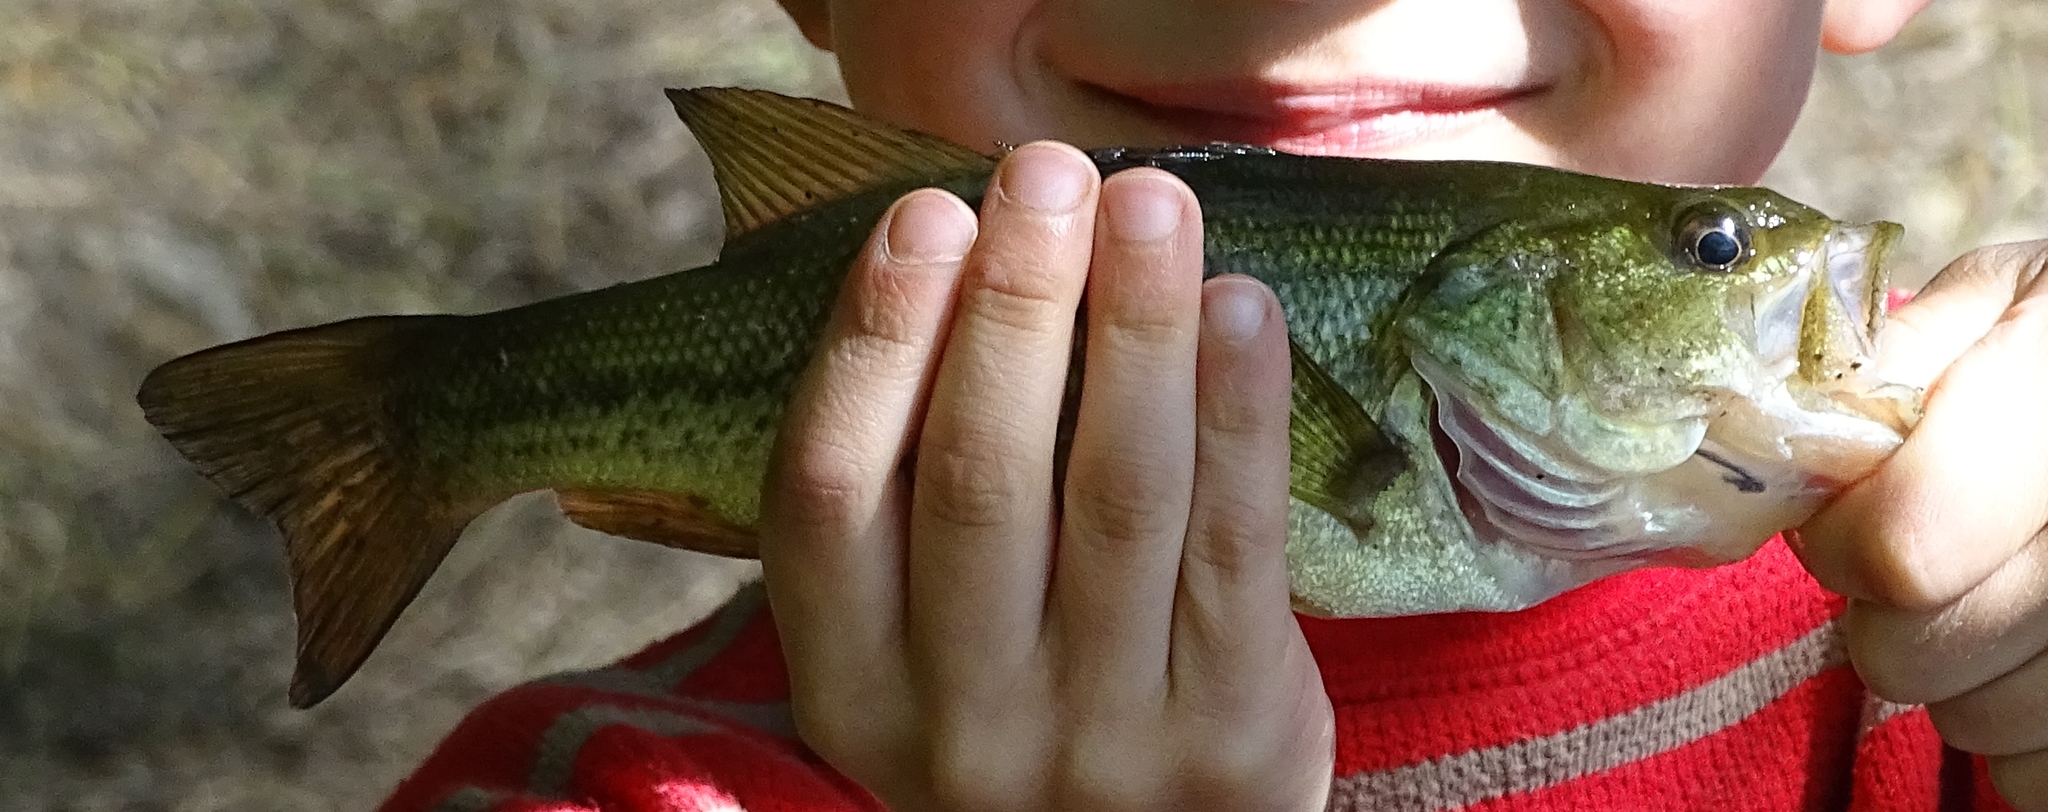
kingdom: Animalia
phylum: Chordata
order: Perciformes
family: Centrarchidae
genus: Micropterus
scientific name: Micropterus
